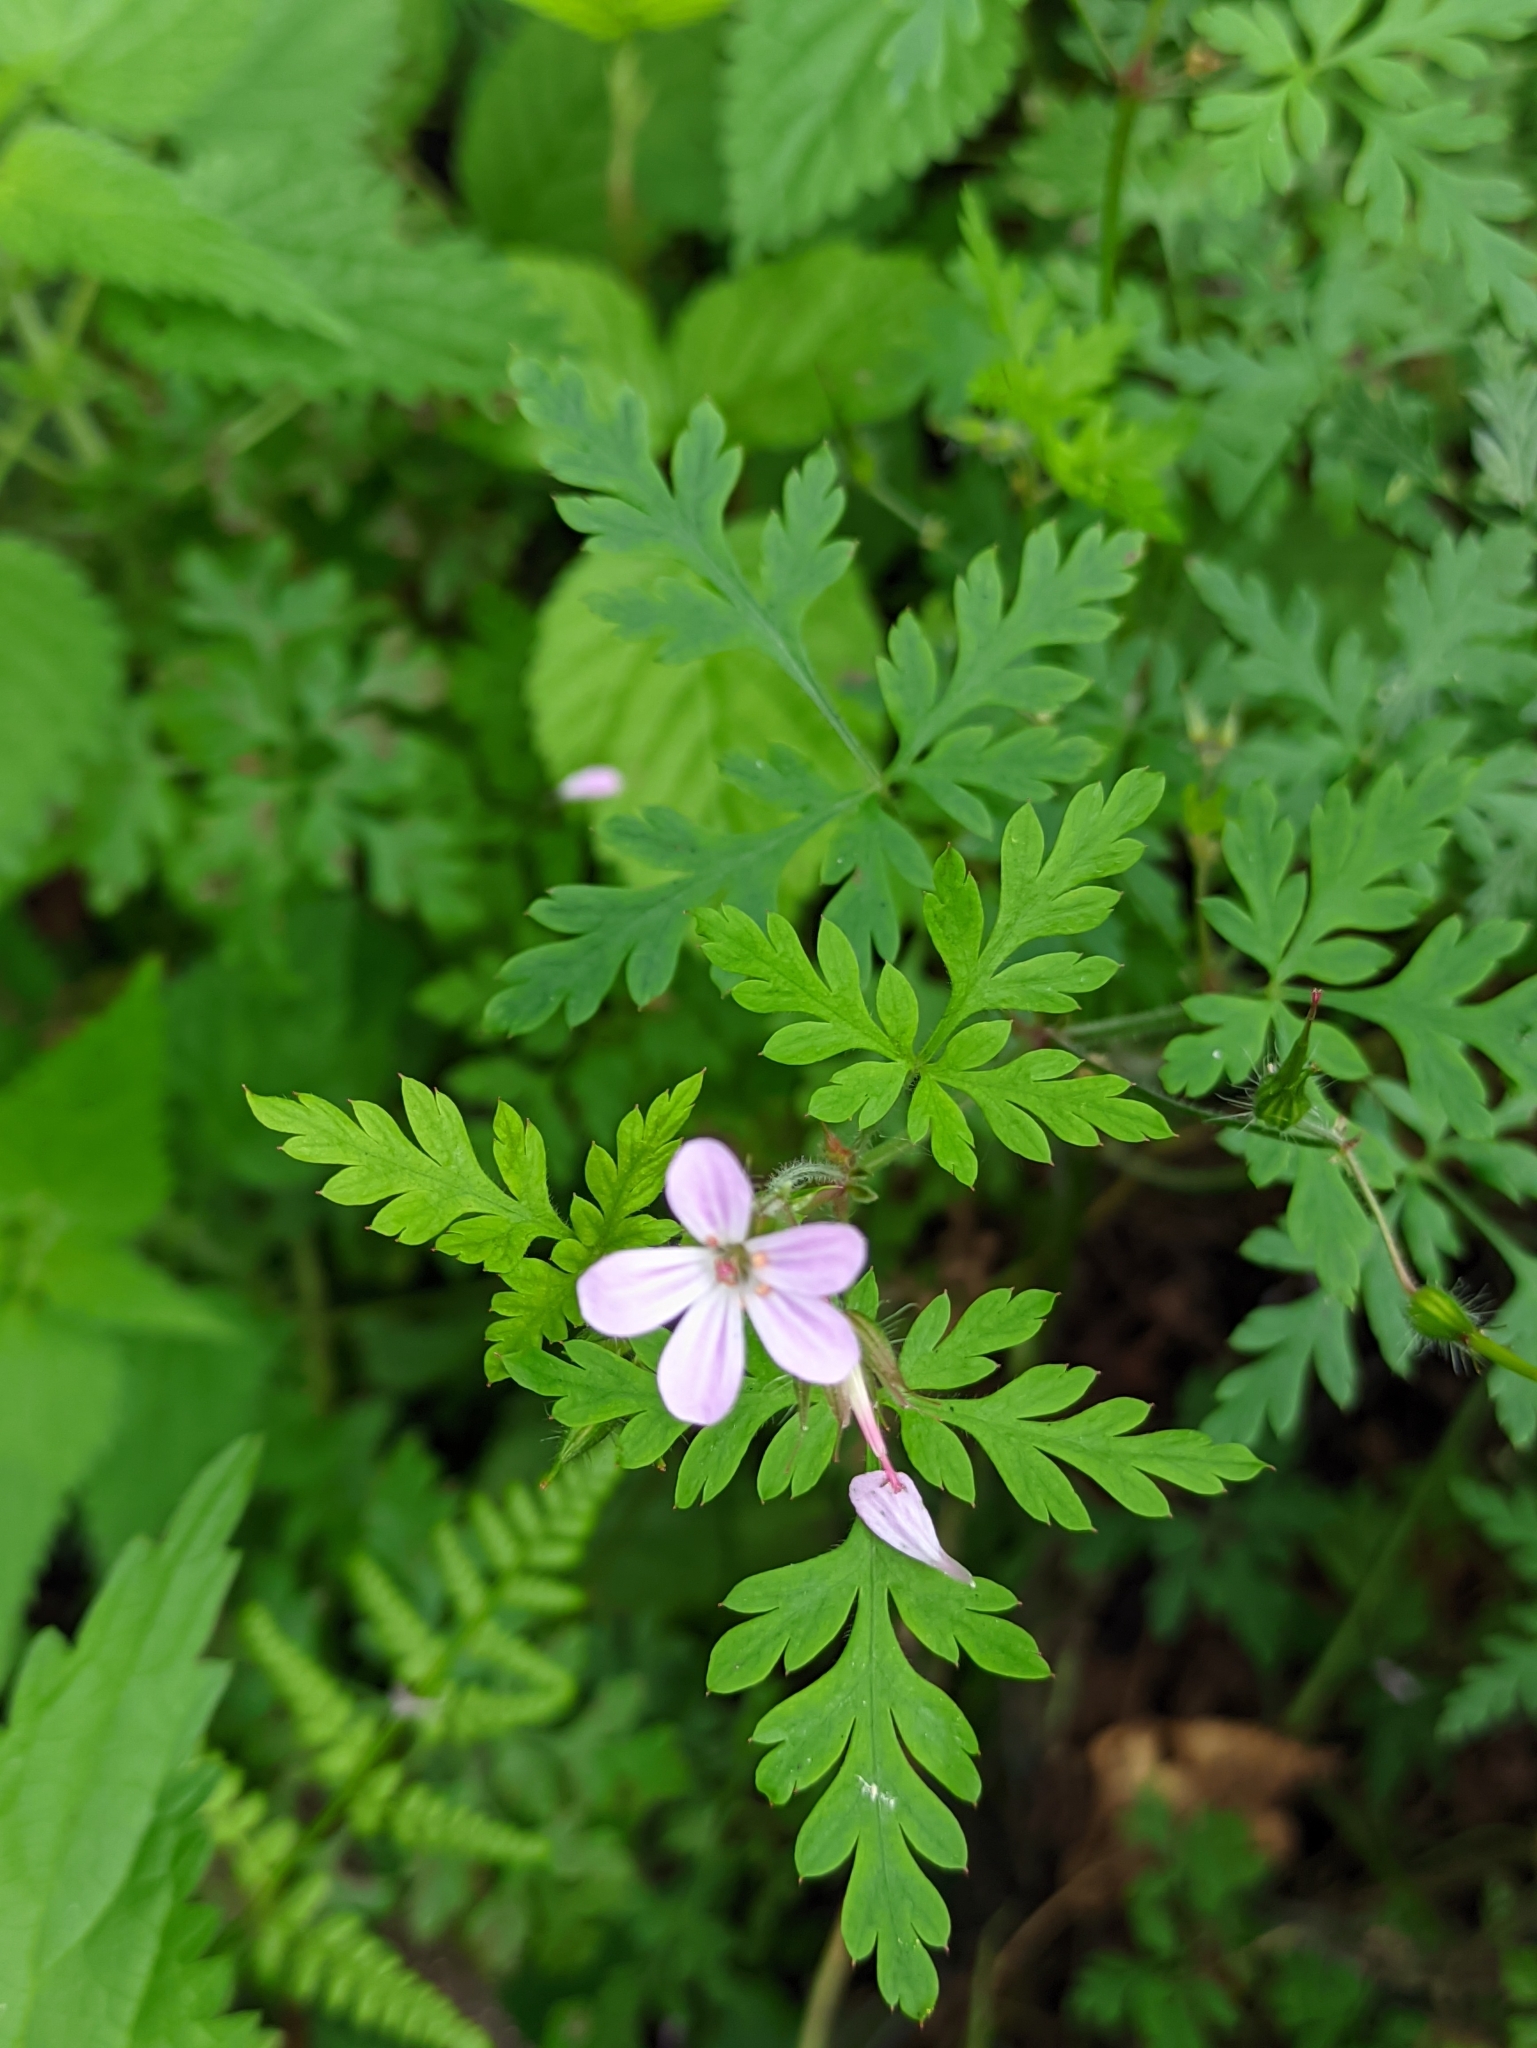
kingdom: Plantae
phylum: Tracheophyta
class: Magnoliopsida
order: Geraniales
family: Geraniaceae
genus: Geranium
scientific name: Geranium robertianum
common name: Herb-robert
